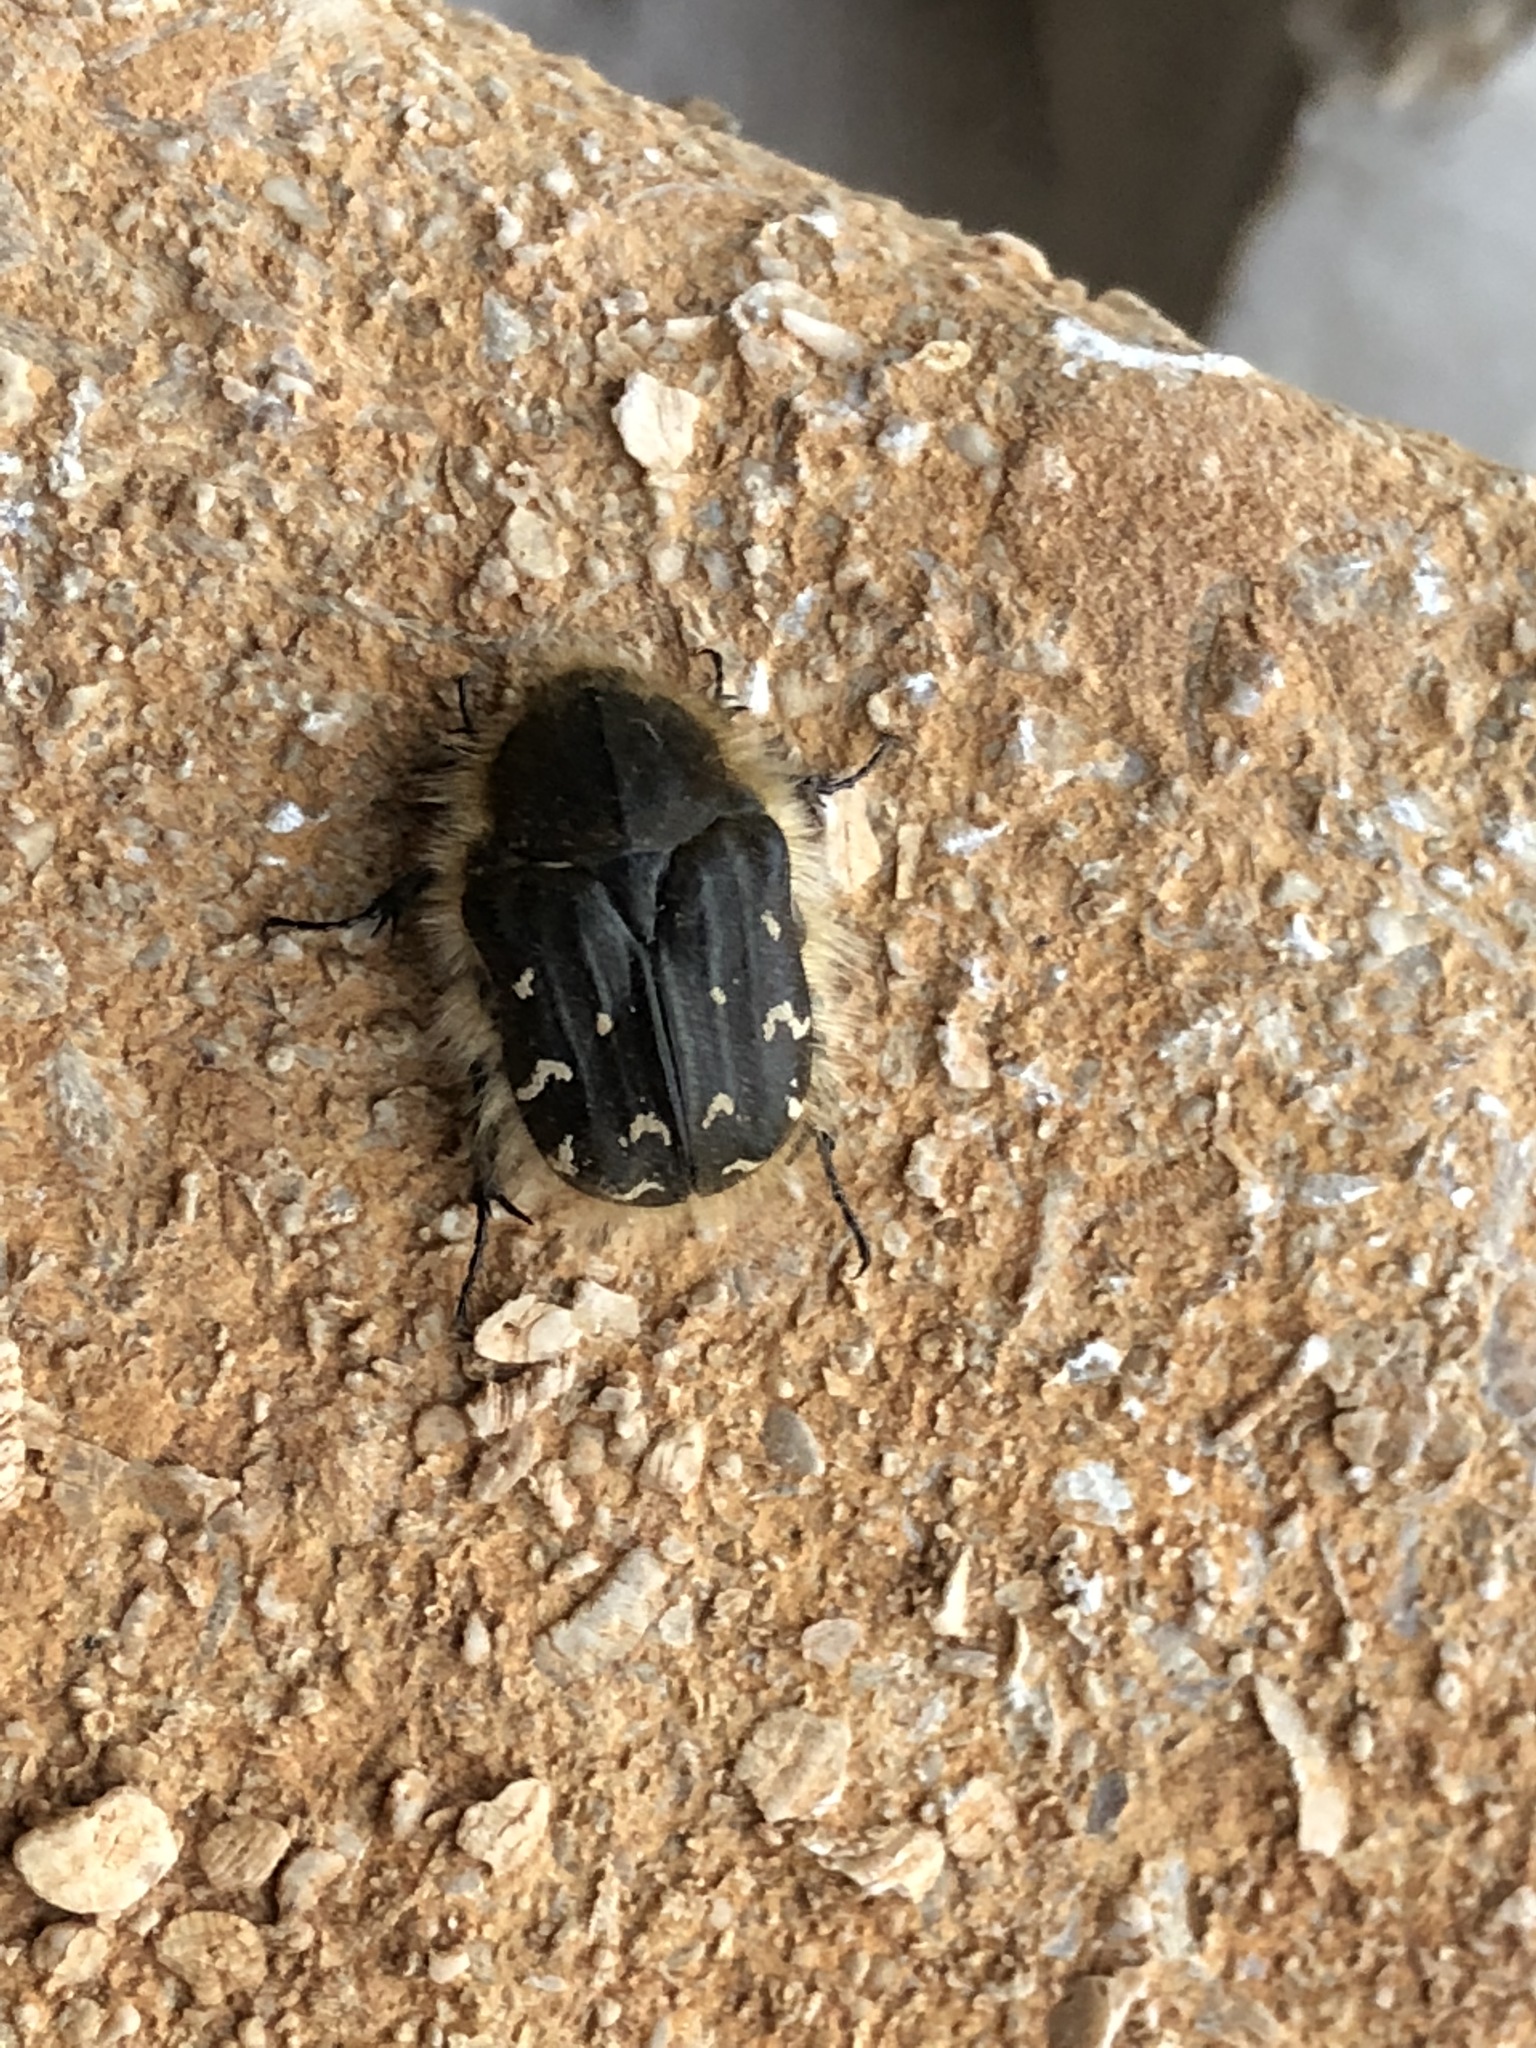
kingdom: Animalia
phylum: Arthropoda
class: Insecta
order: Coleoptera
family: Scarabaeidae
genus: Tropinota
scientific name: Tropinota hirta
